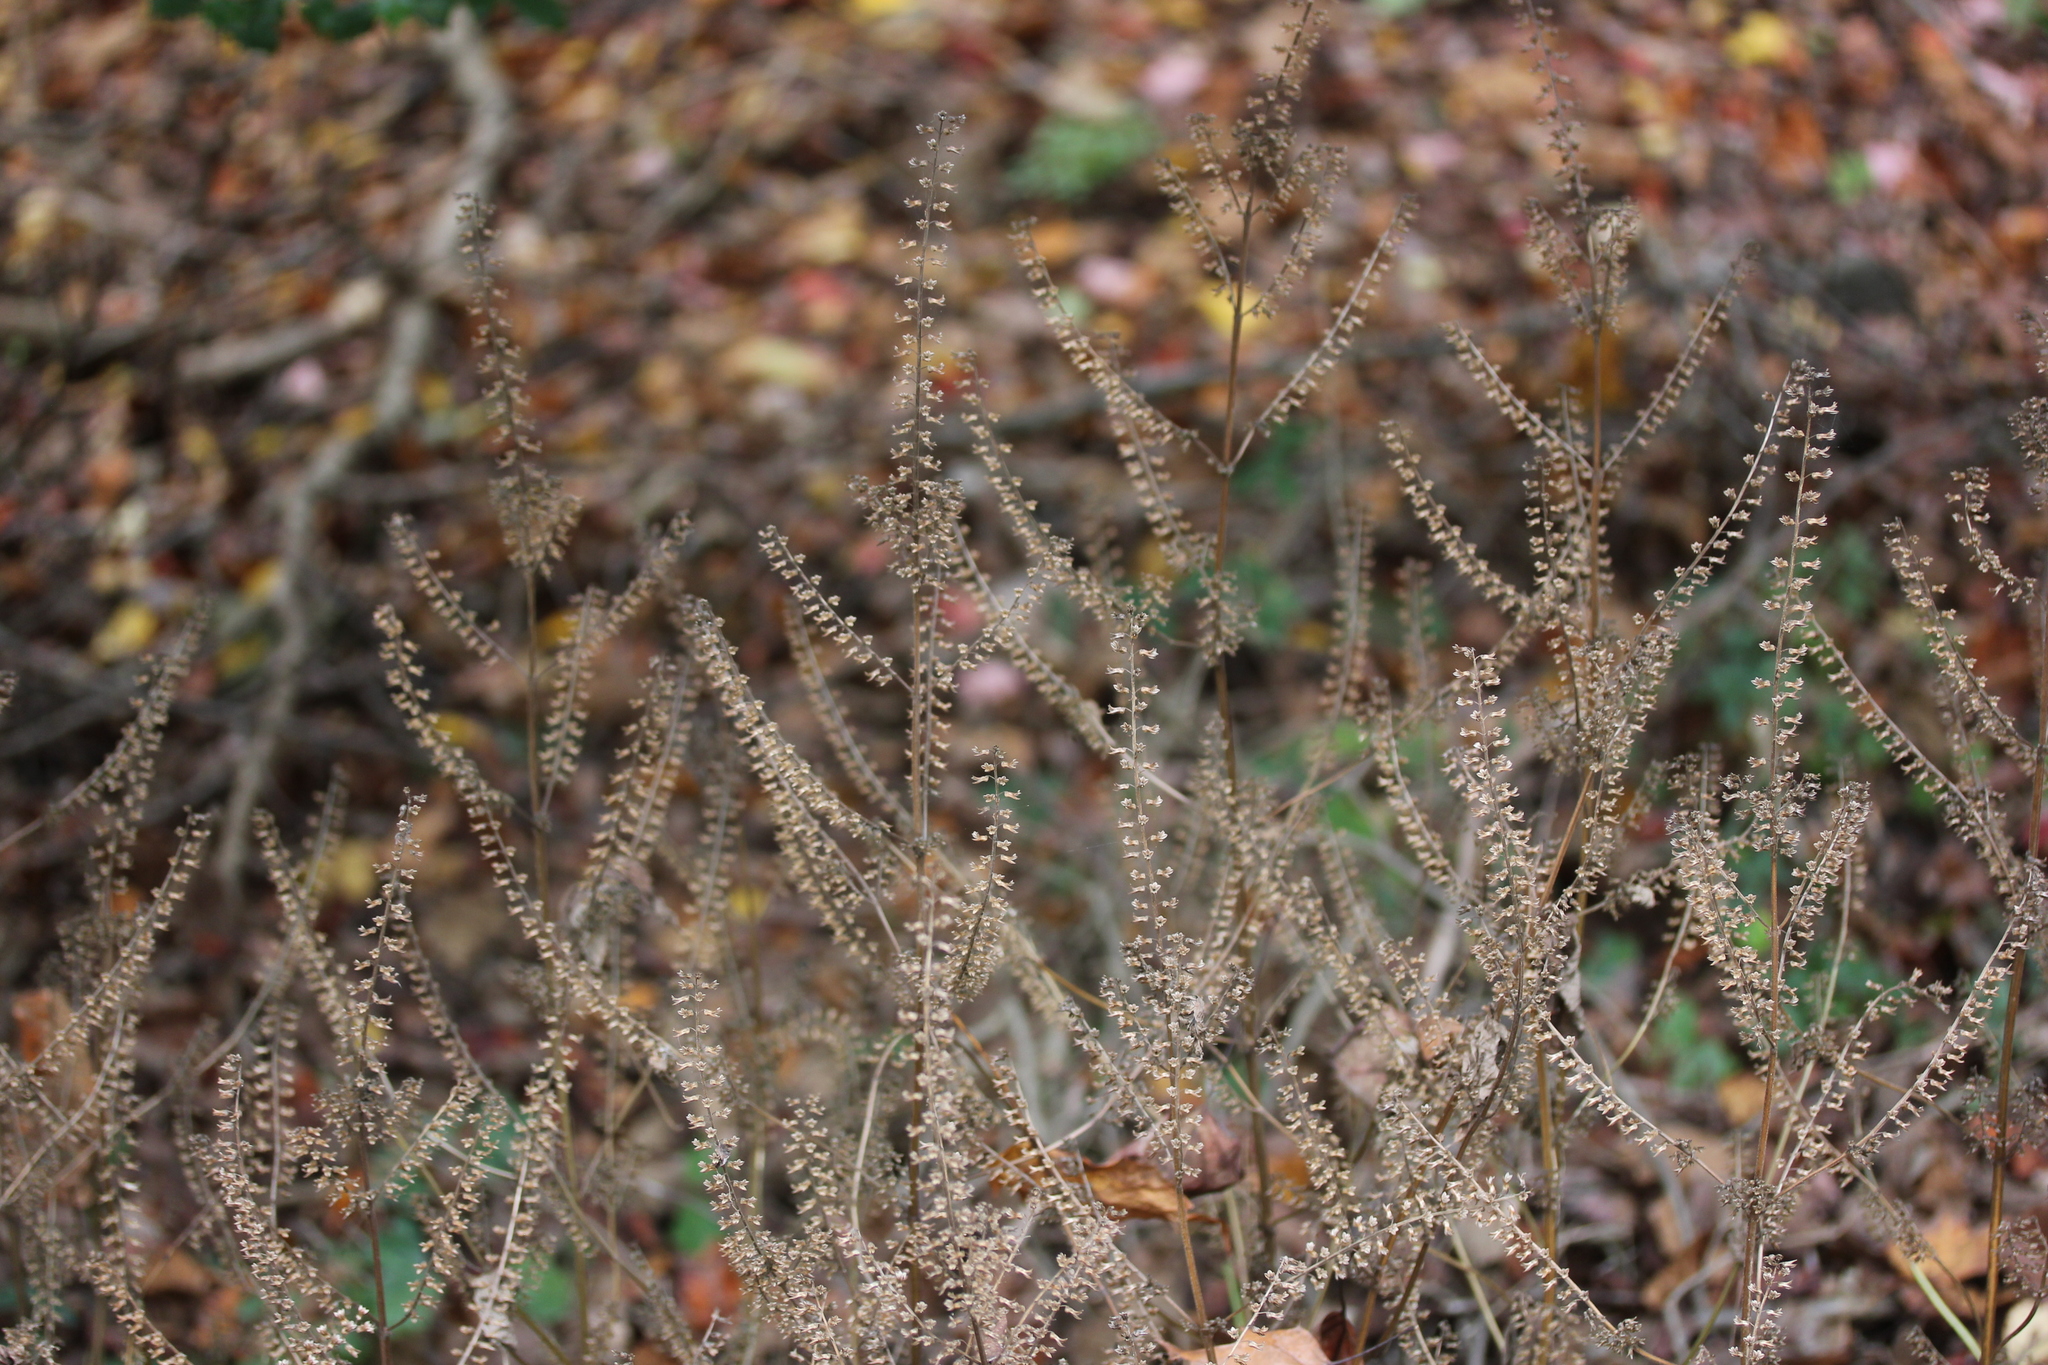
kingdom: Plantae
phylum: Tracheophyta
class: Magnoliopsida
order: Lamiales
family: Lamiaceae
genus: Perilla
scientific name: Perilla frutescens
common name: Perilla
